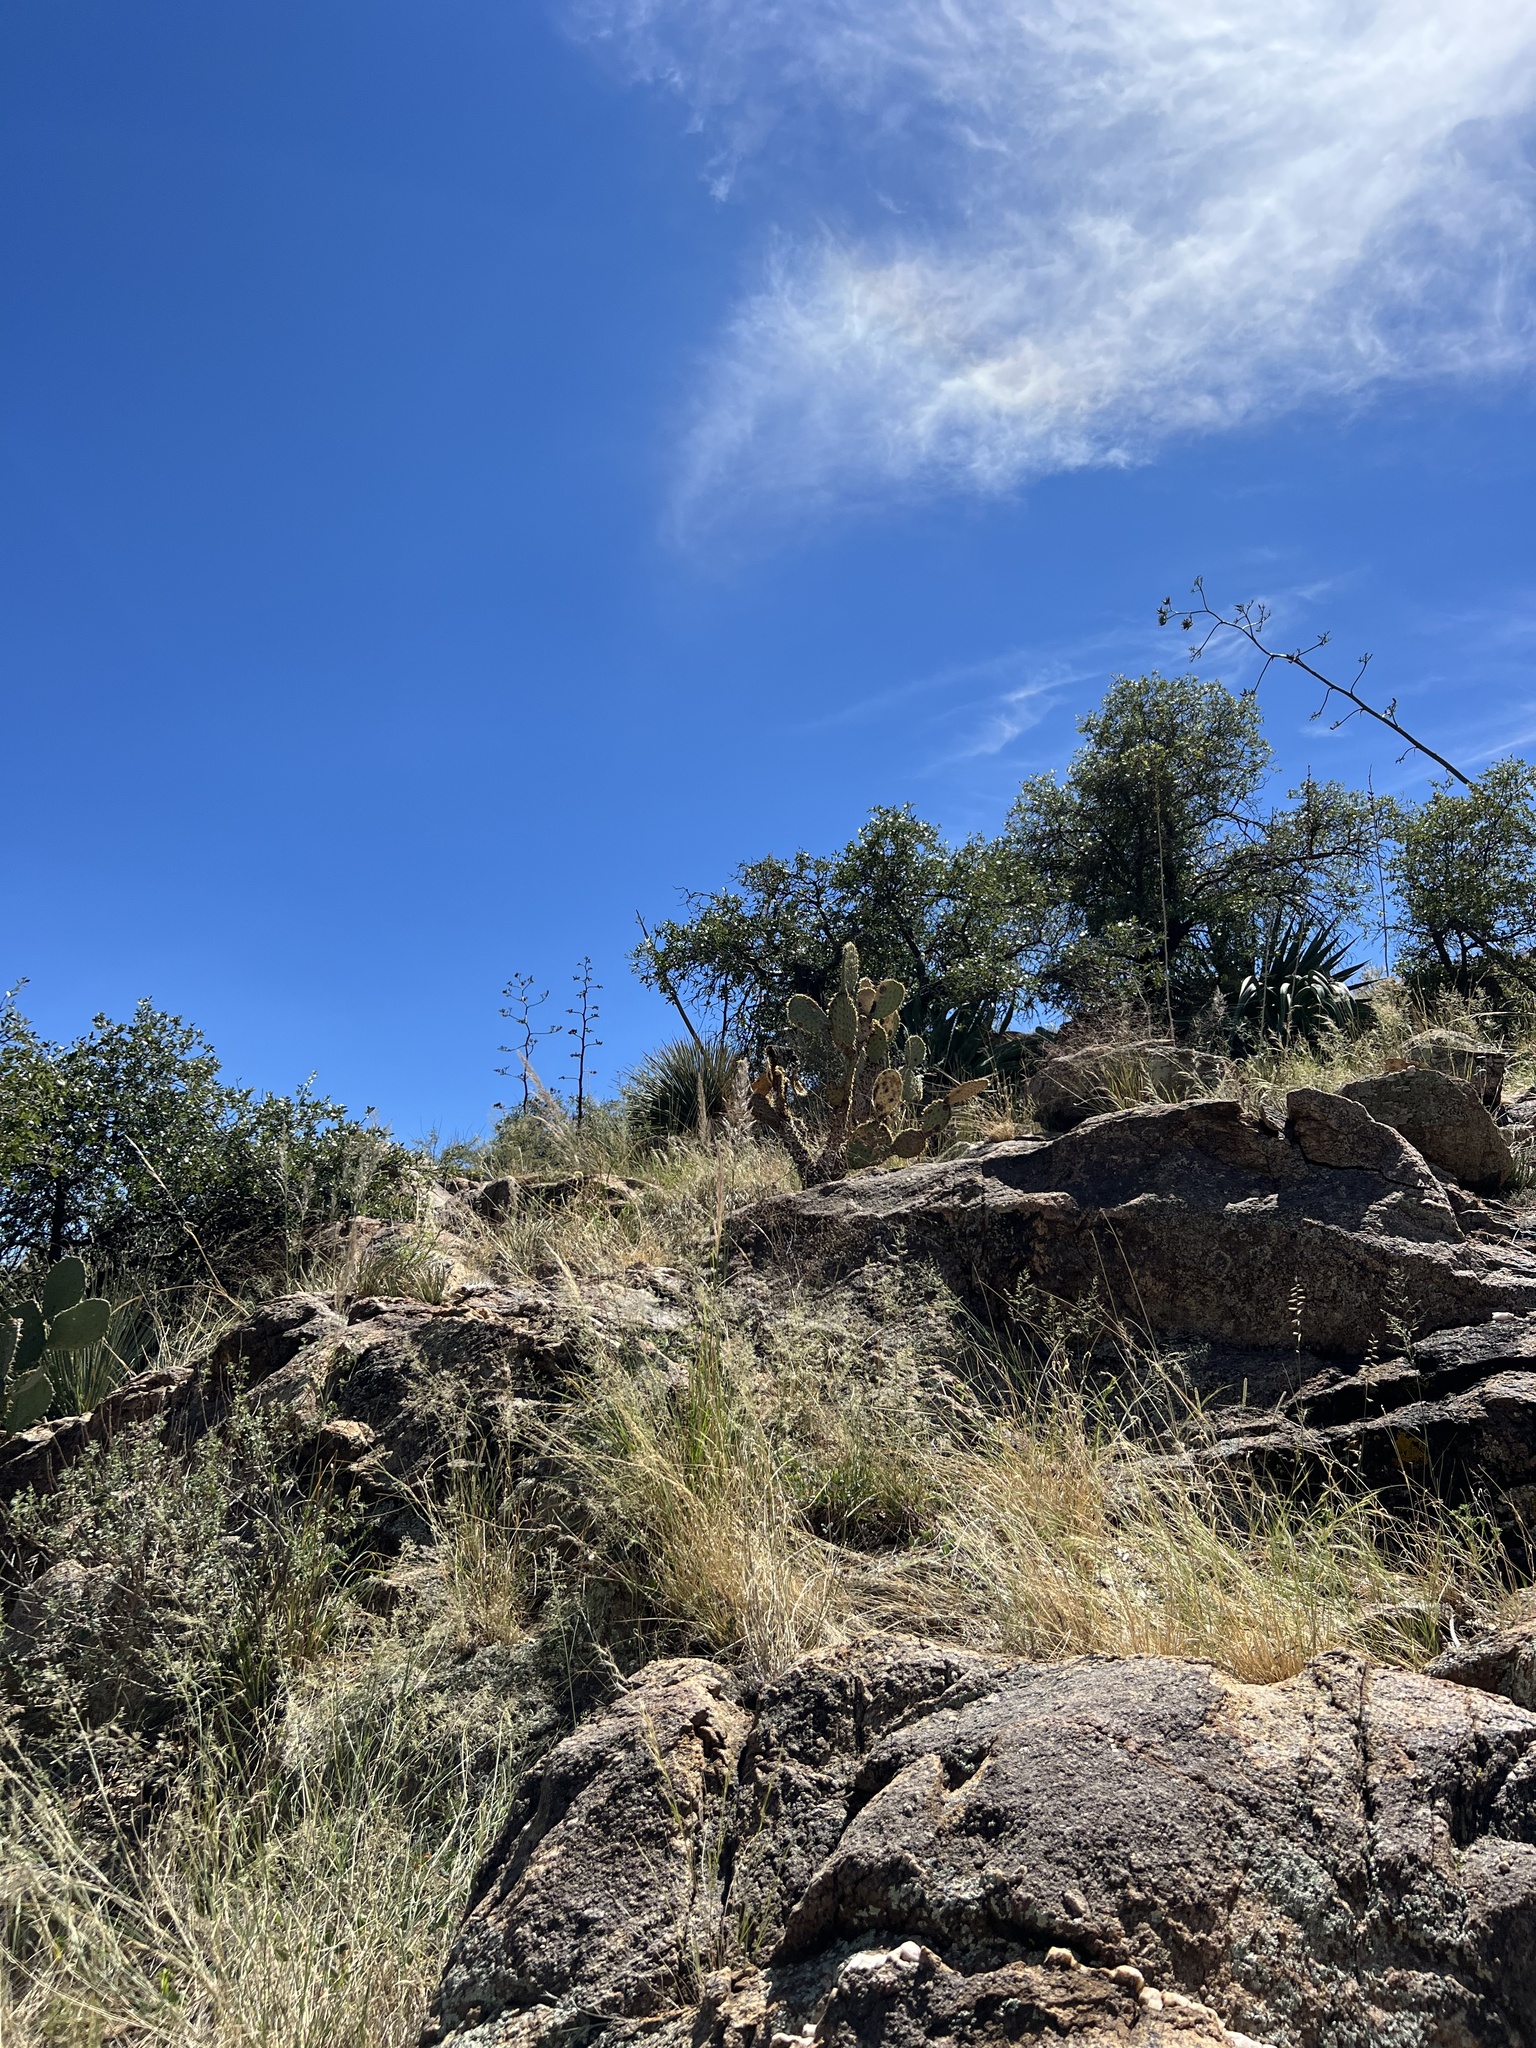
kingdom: Plantae
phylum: Tracheophyta
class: Magnoliopsida
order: Caryophyllales
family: Cactaceae
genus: Opuntia
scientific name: Opuntia chlorotica
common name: Dollar-joint prickly-pear
